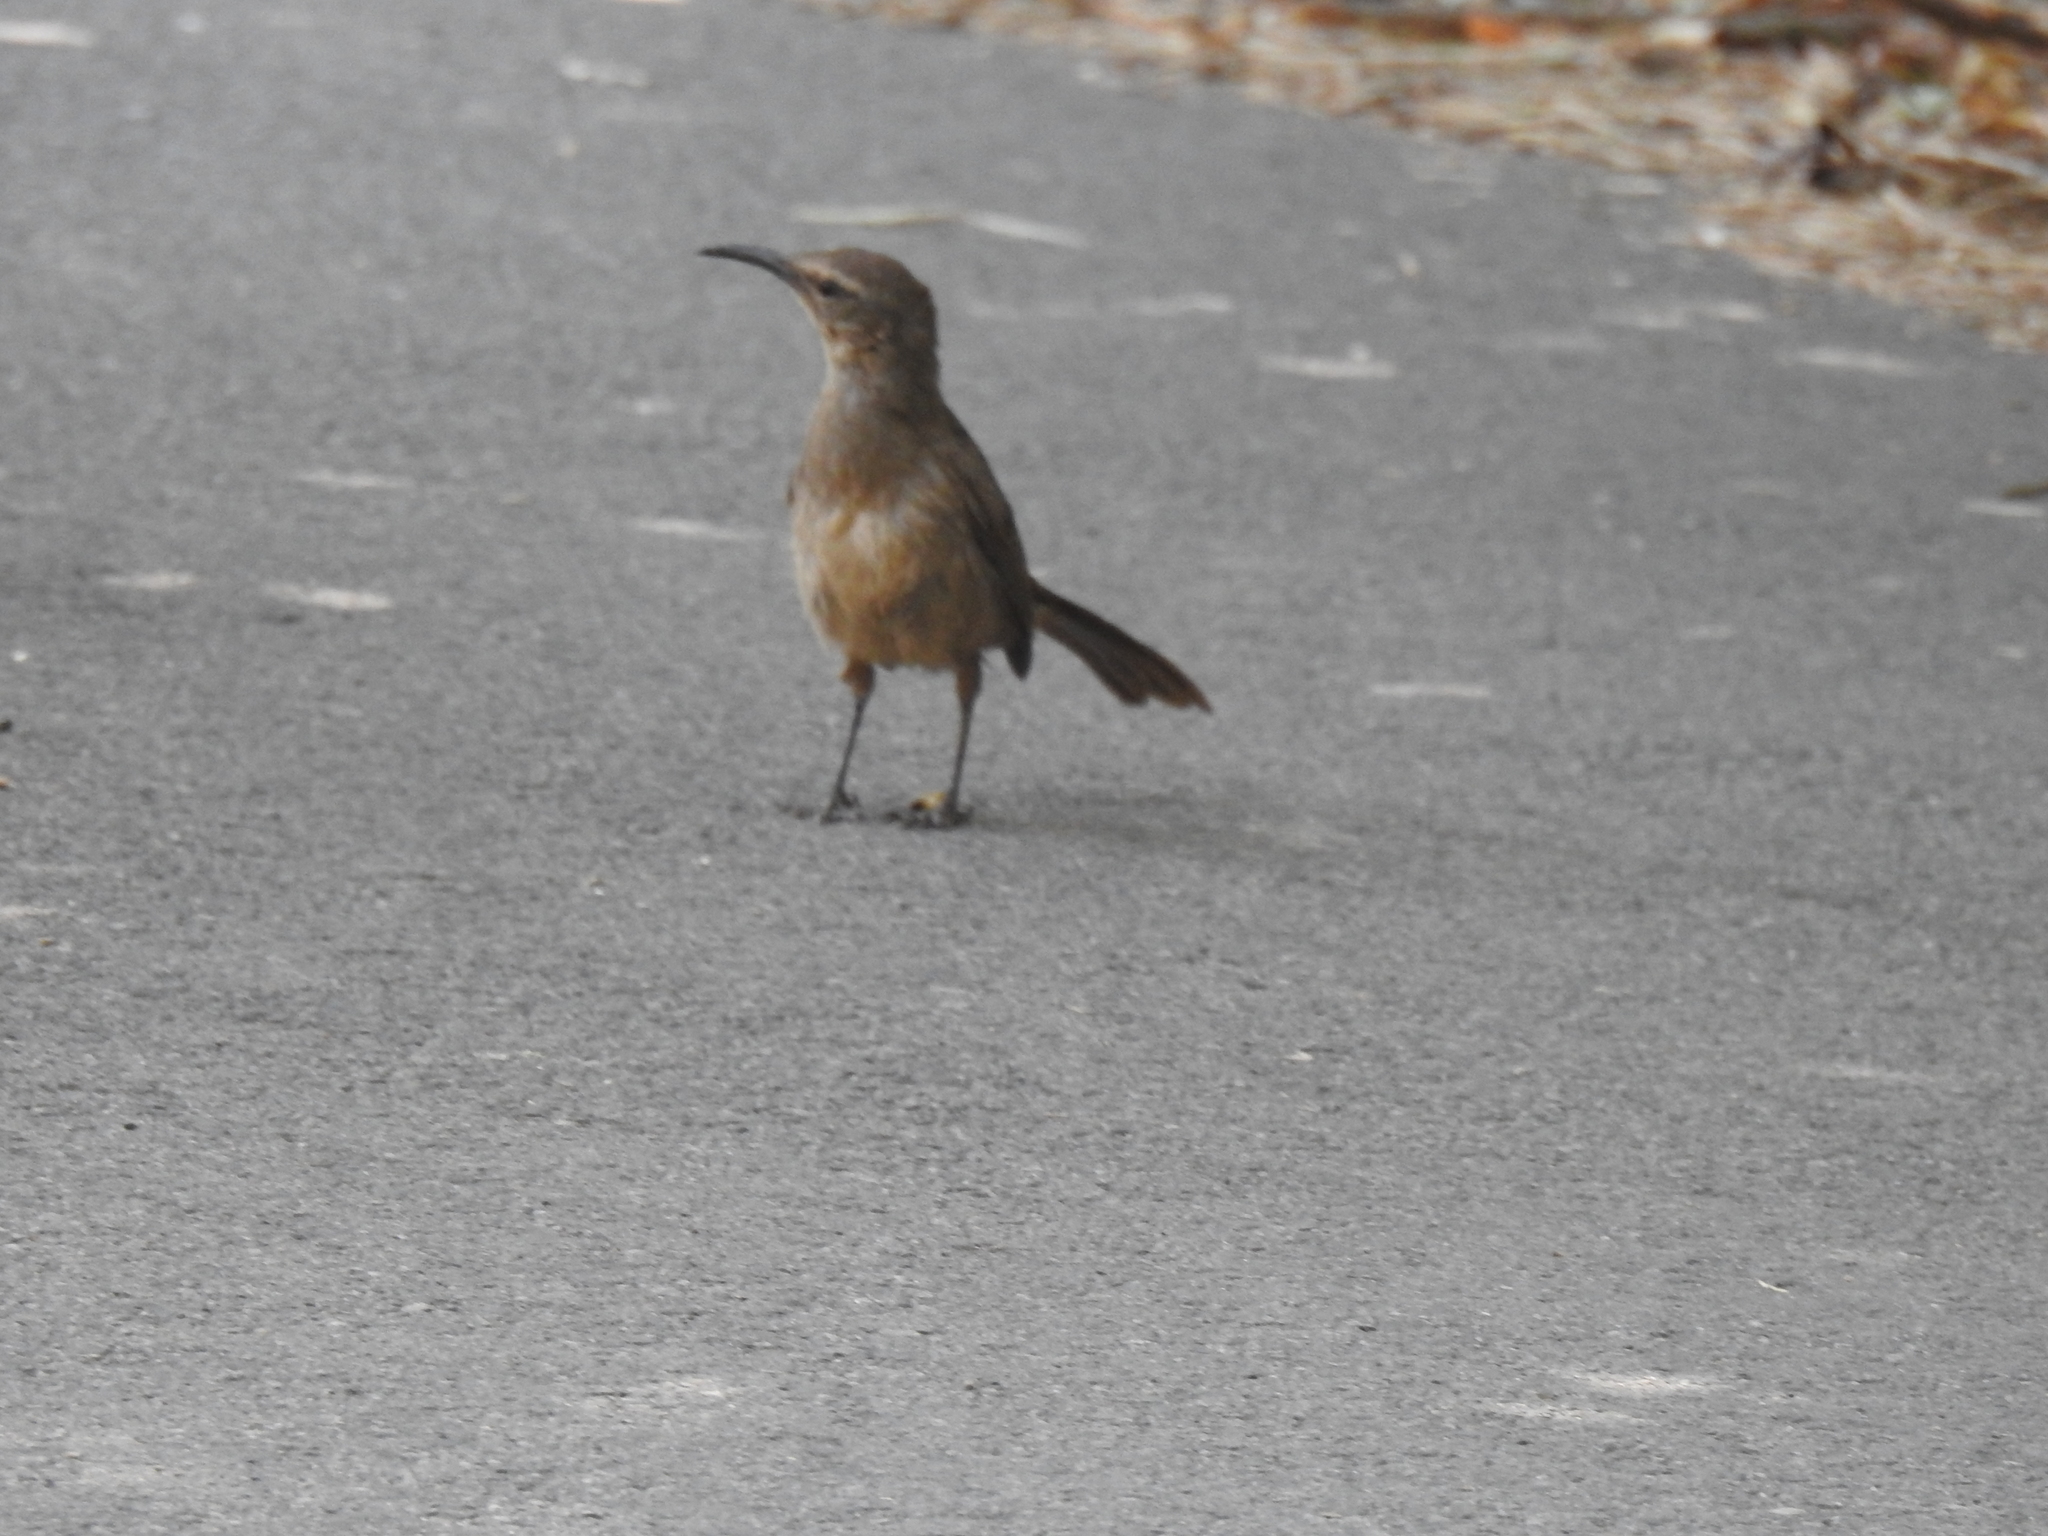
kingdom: Animalia
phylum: Chordata
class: Aves
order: Passeriformes
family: Mimidae
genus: Toxostoma
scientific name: Toxostoma redivivum
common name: California thrasher
